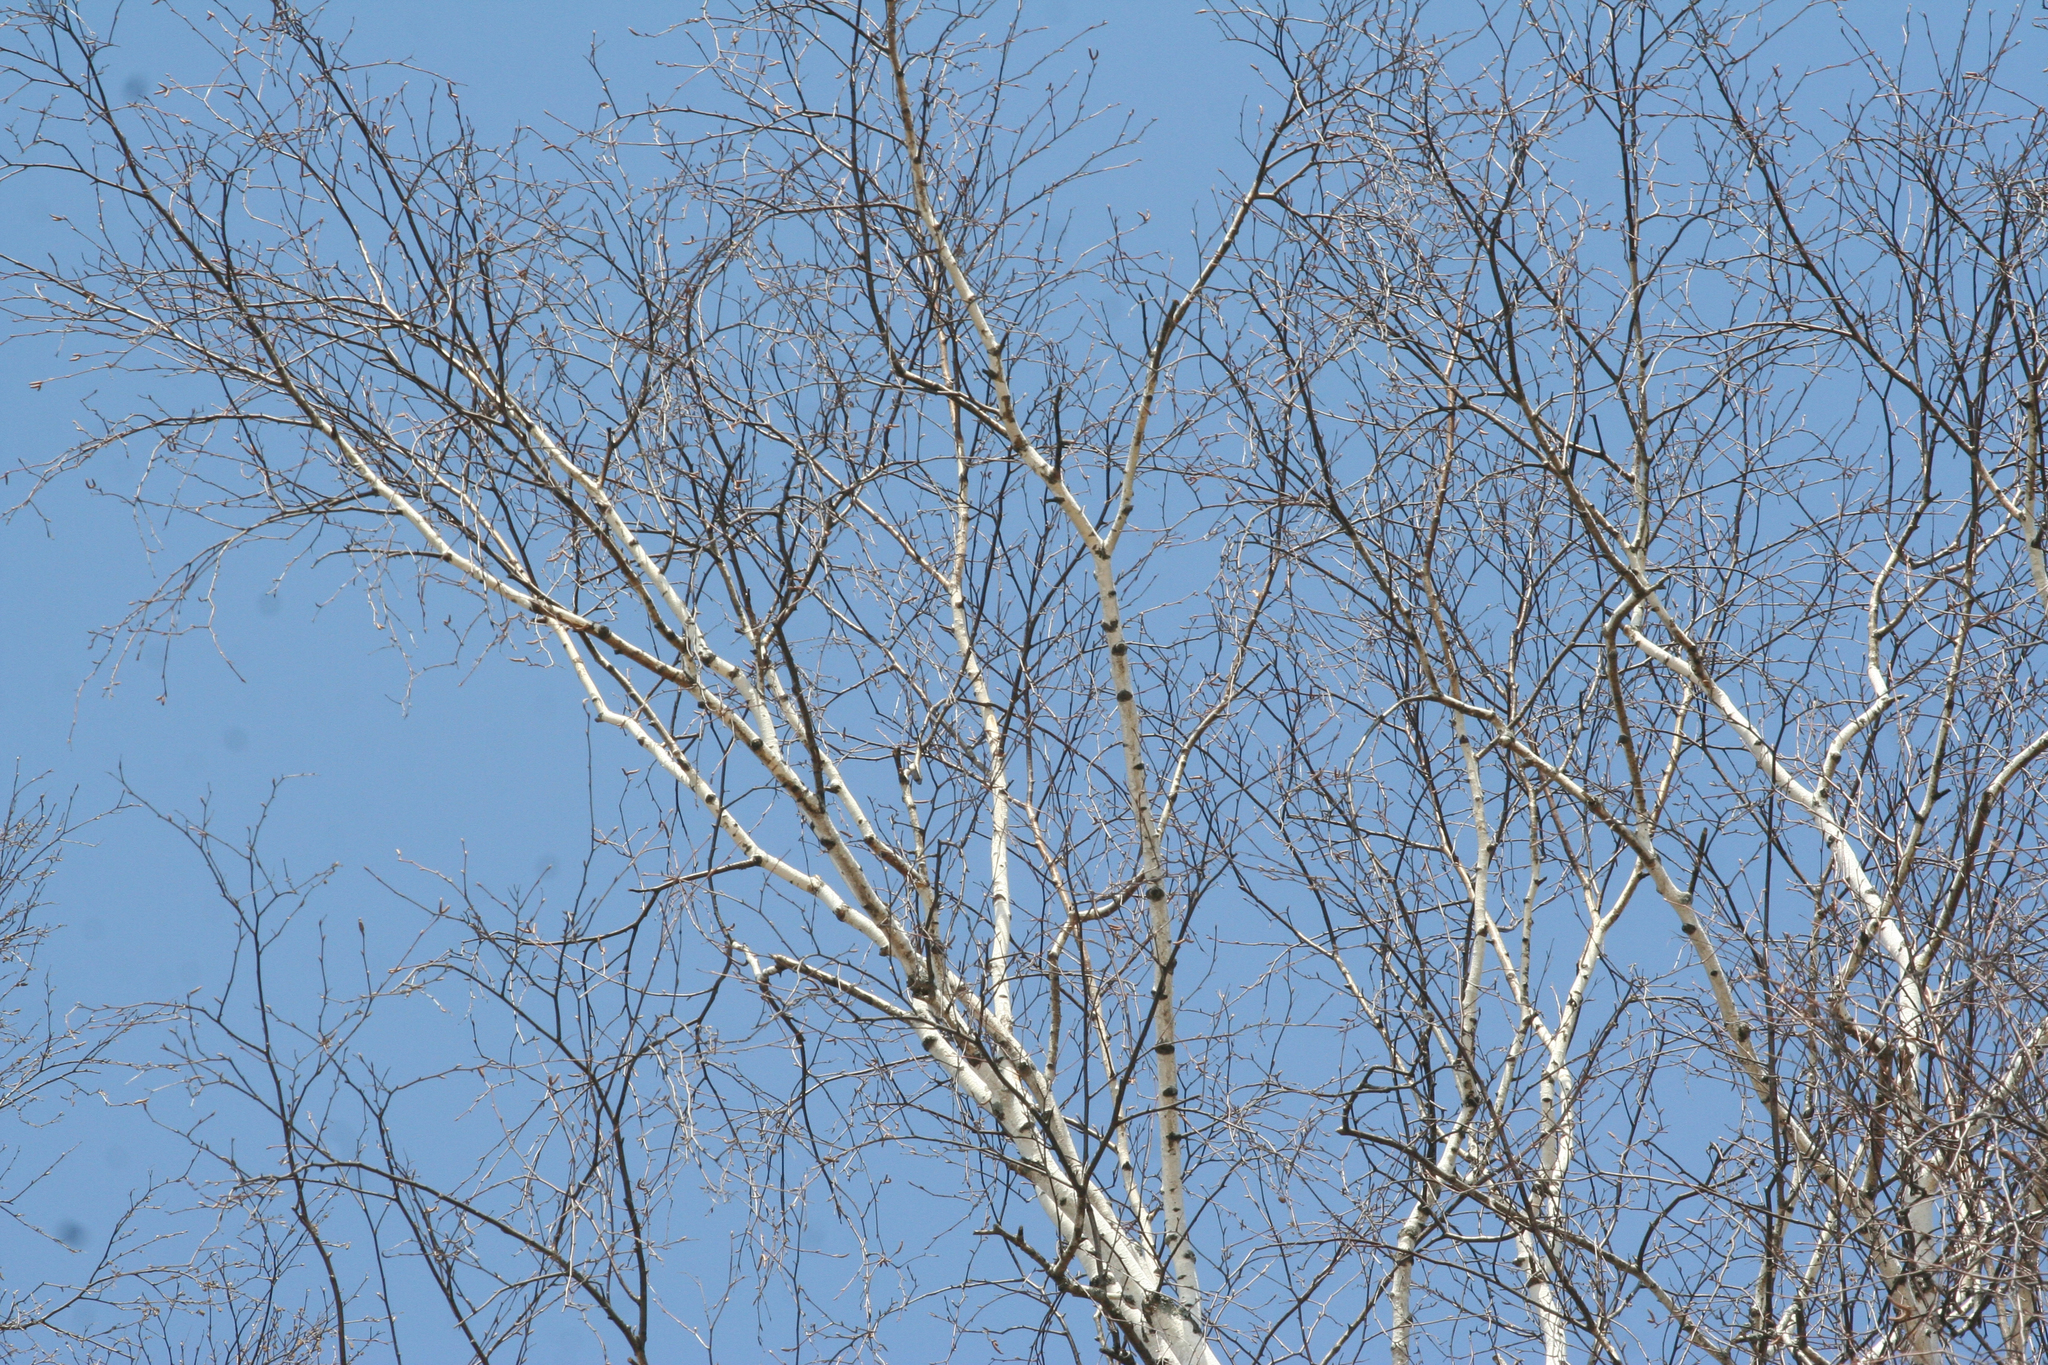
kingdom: Plantae
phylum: Tracheophyta
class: Magnoliopsida
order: Fagales
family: Betulaceae
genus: Betula
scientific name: Betula pendula
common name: Silver birch
